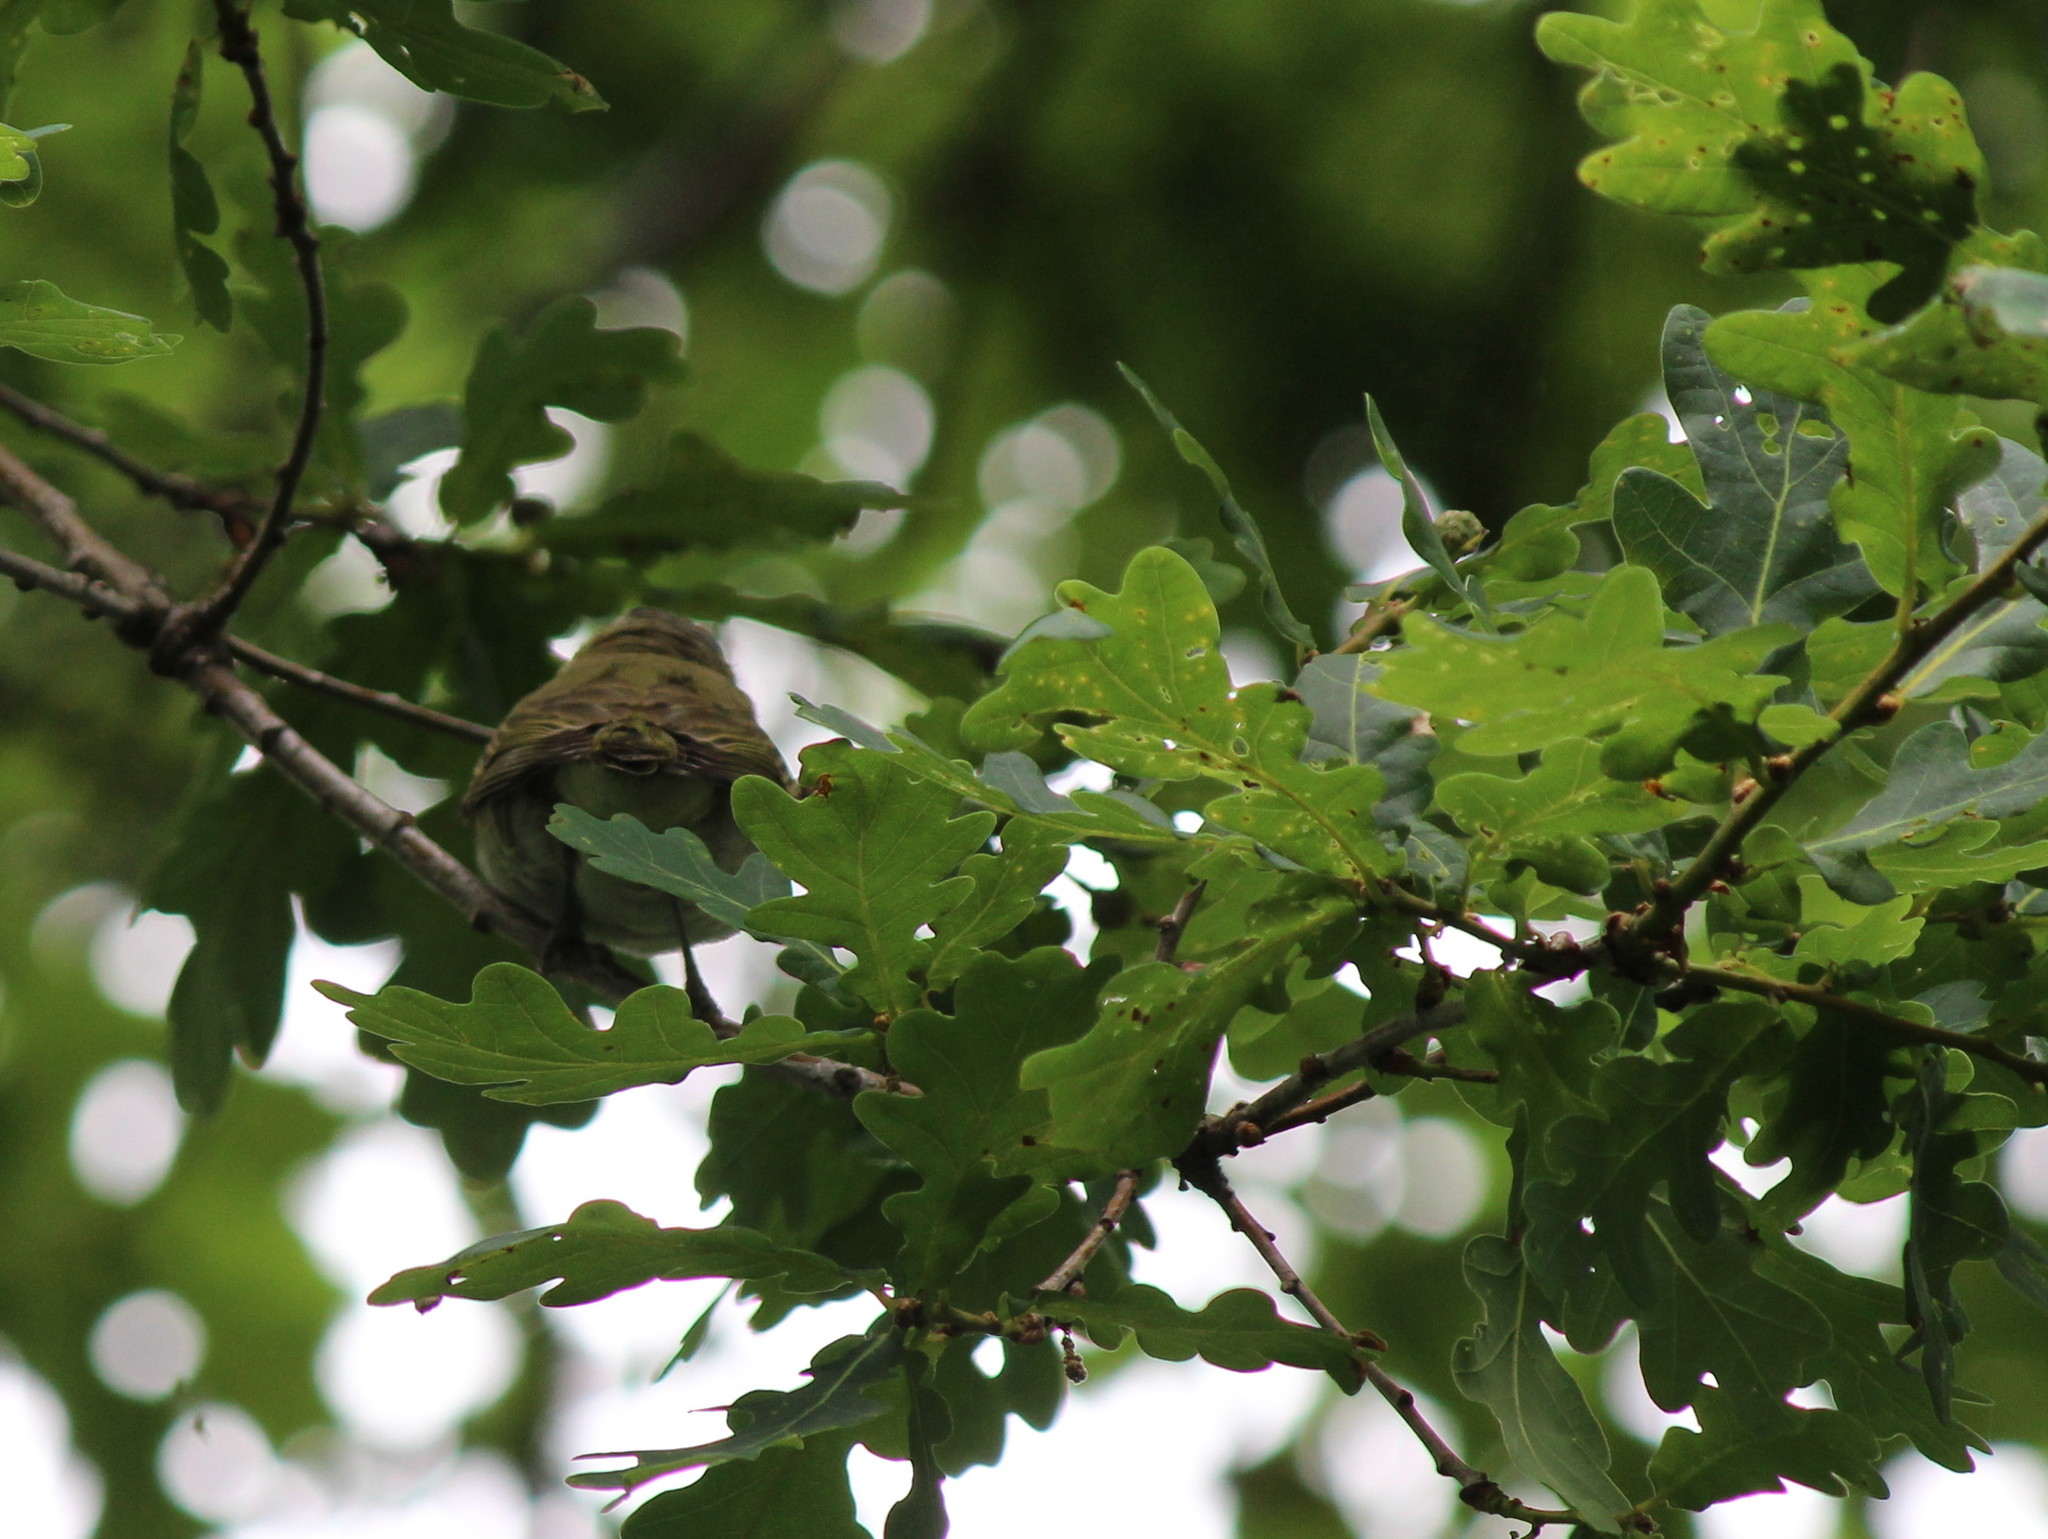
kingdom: Animalia
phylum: Chordata
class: Aves
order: Passeriformes
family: Vireonidae
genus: Vireo
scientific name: Vireo olivaceus
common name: Red-eyed vireo
